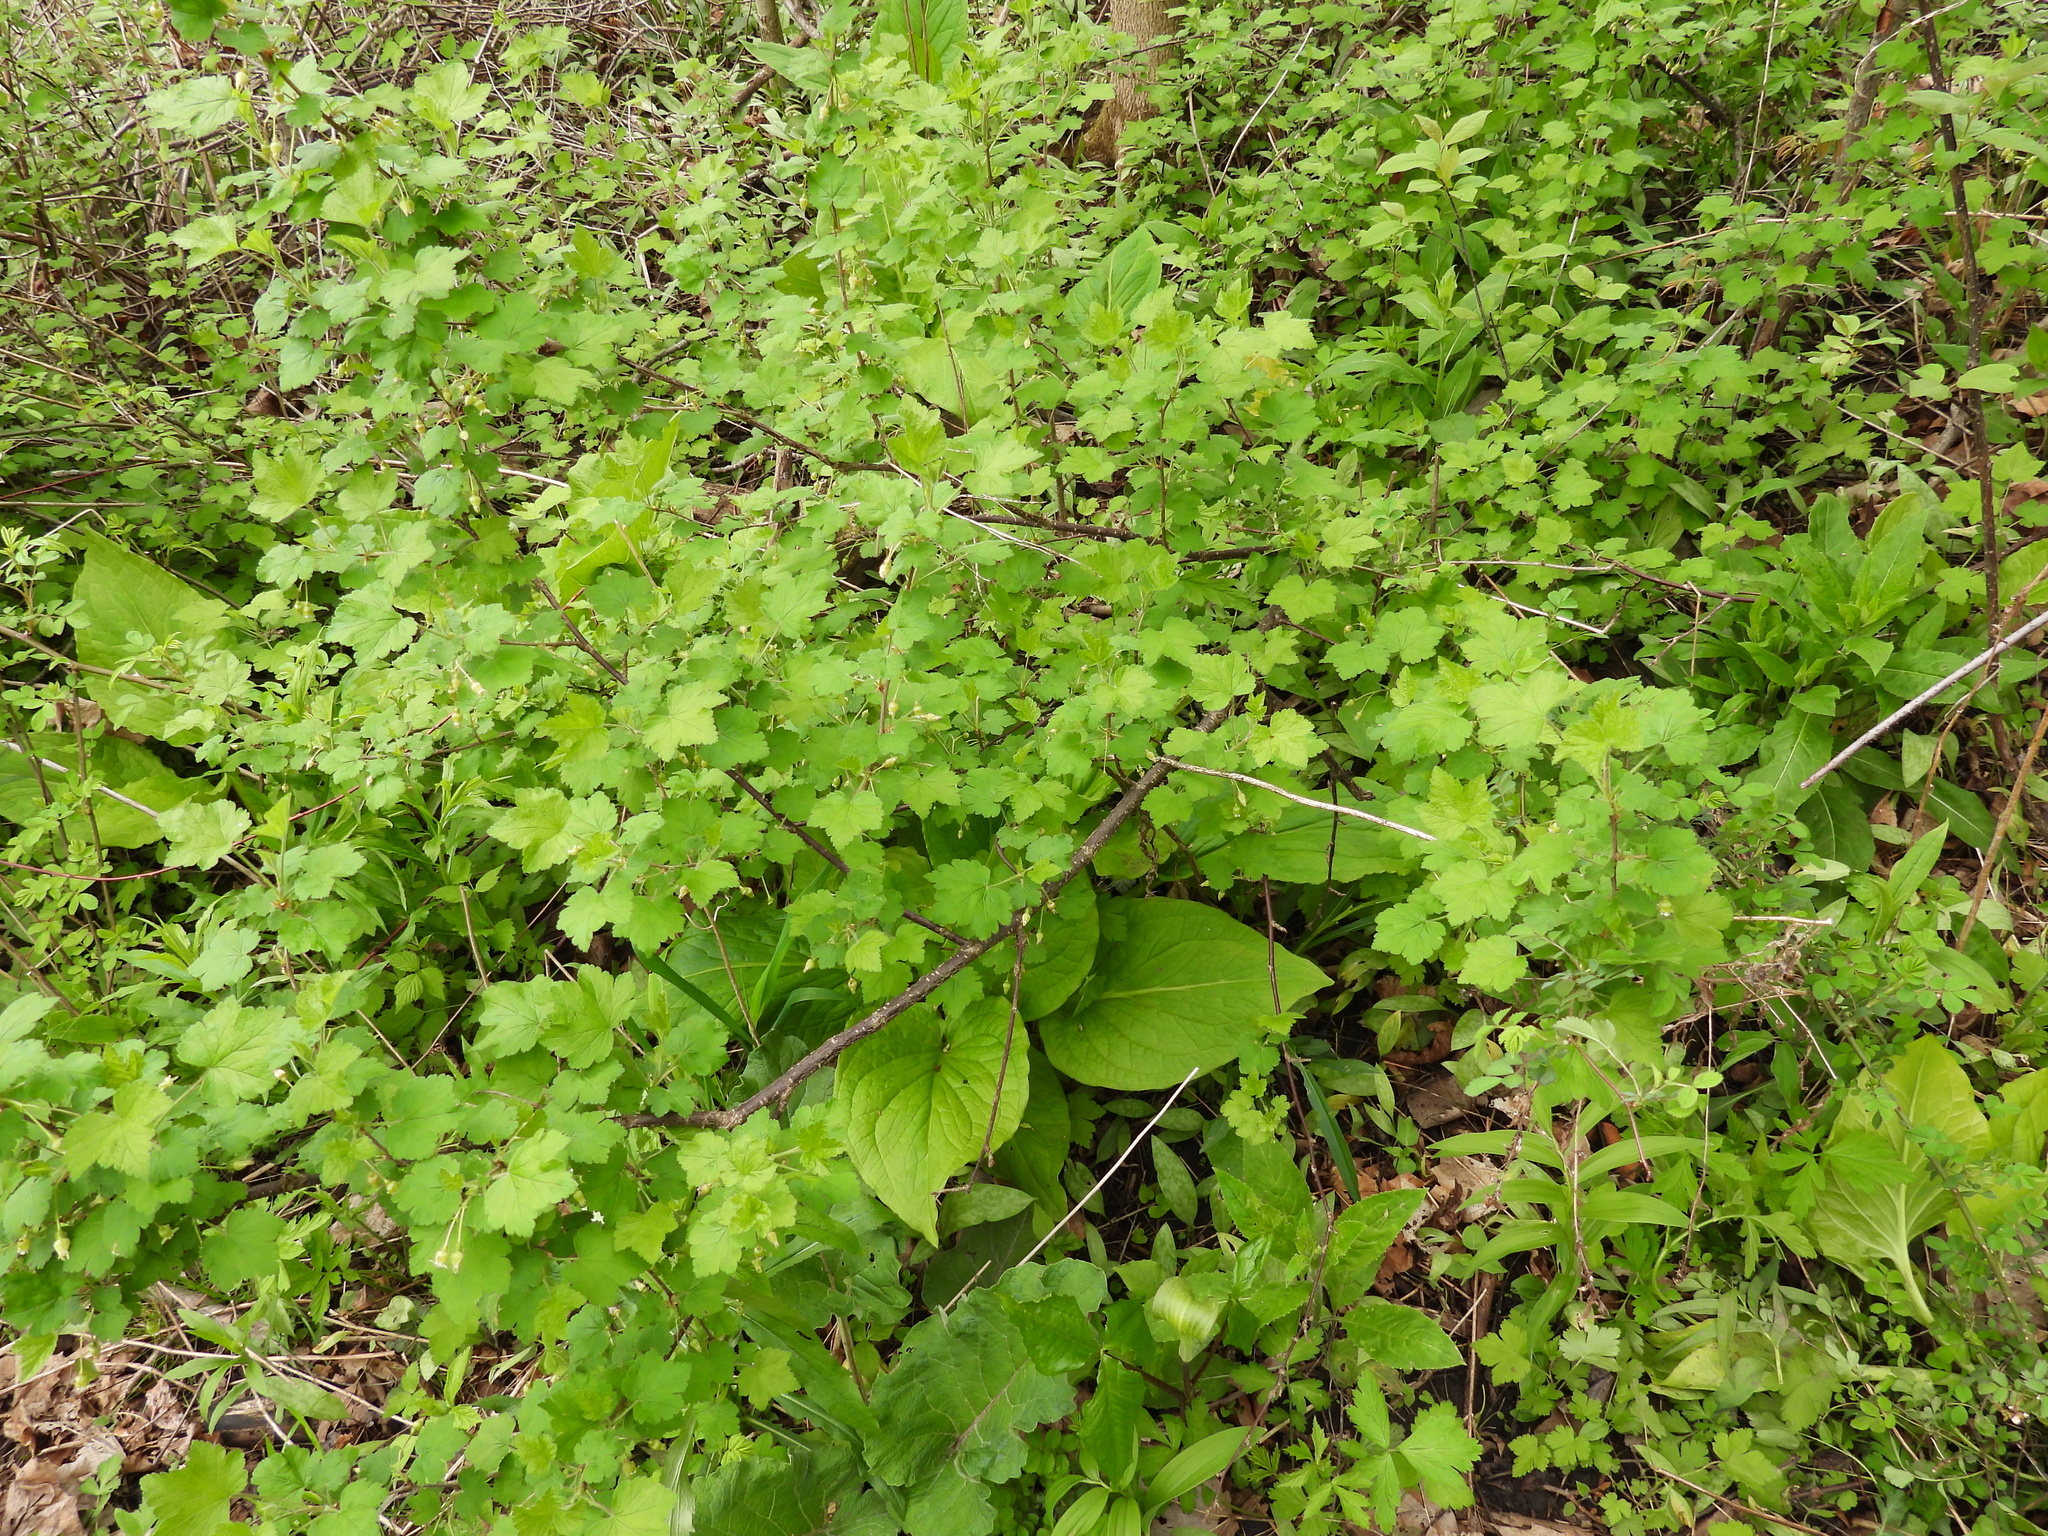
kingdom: Plantae
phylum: Tracheophyta
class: Magnoliopsida
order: Saxifragales
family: Grossulariaceae
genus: Ribes
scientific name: Ribes cynosbati
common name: American gooseberry
